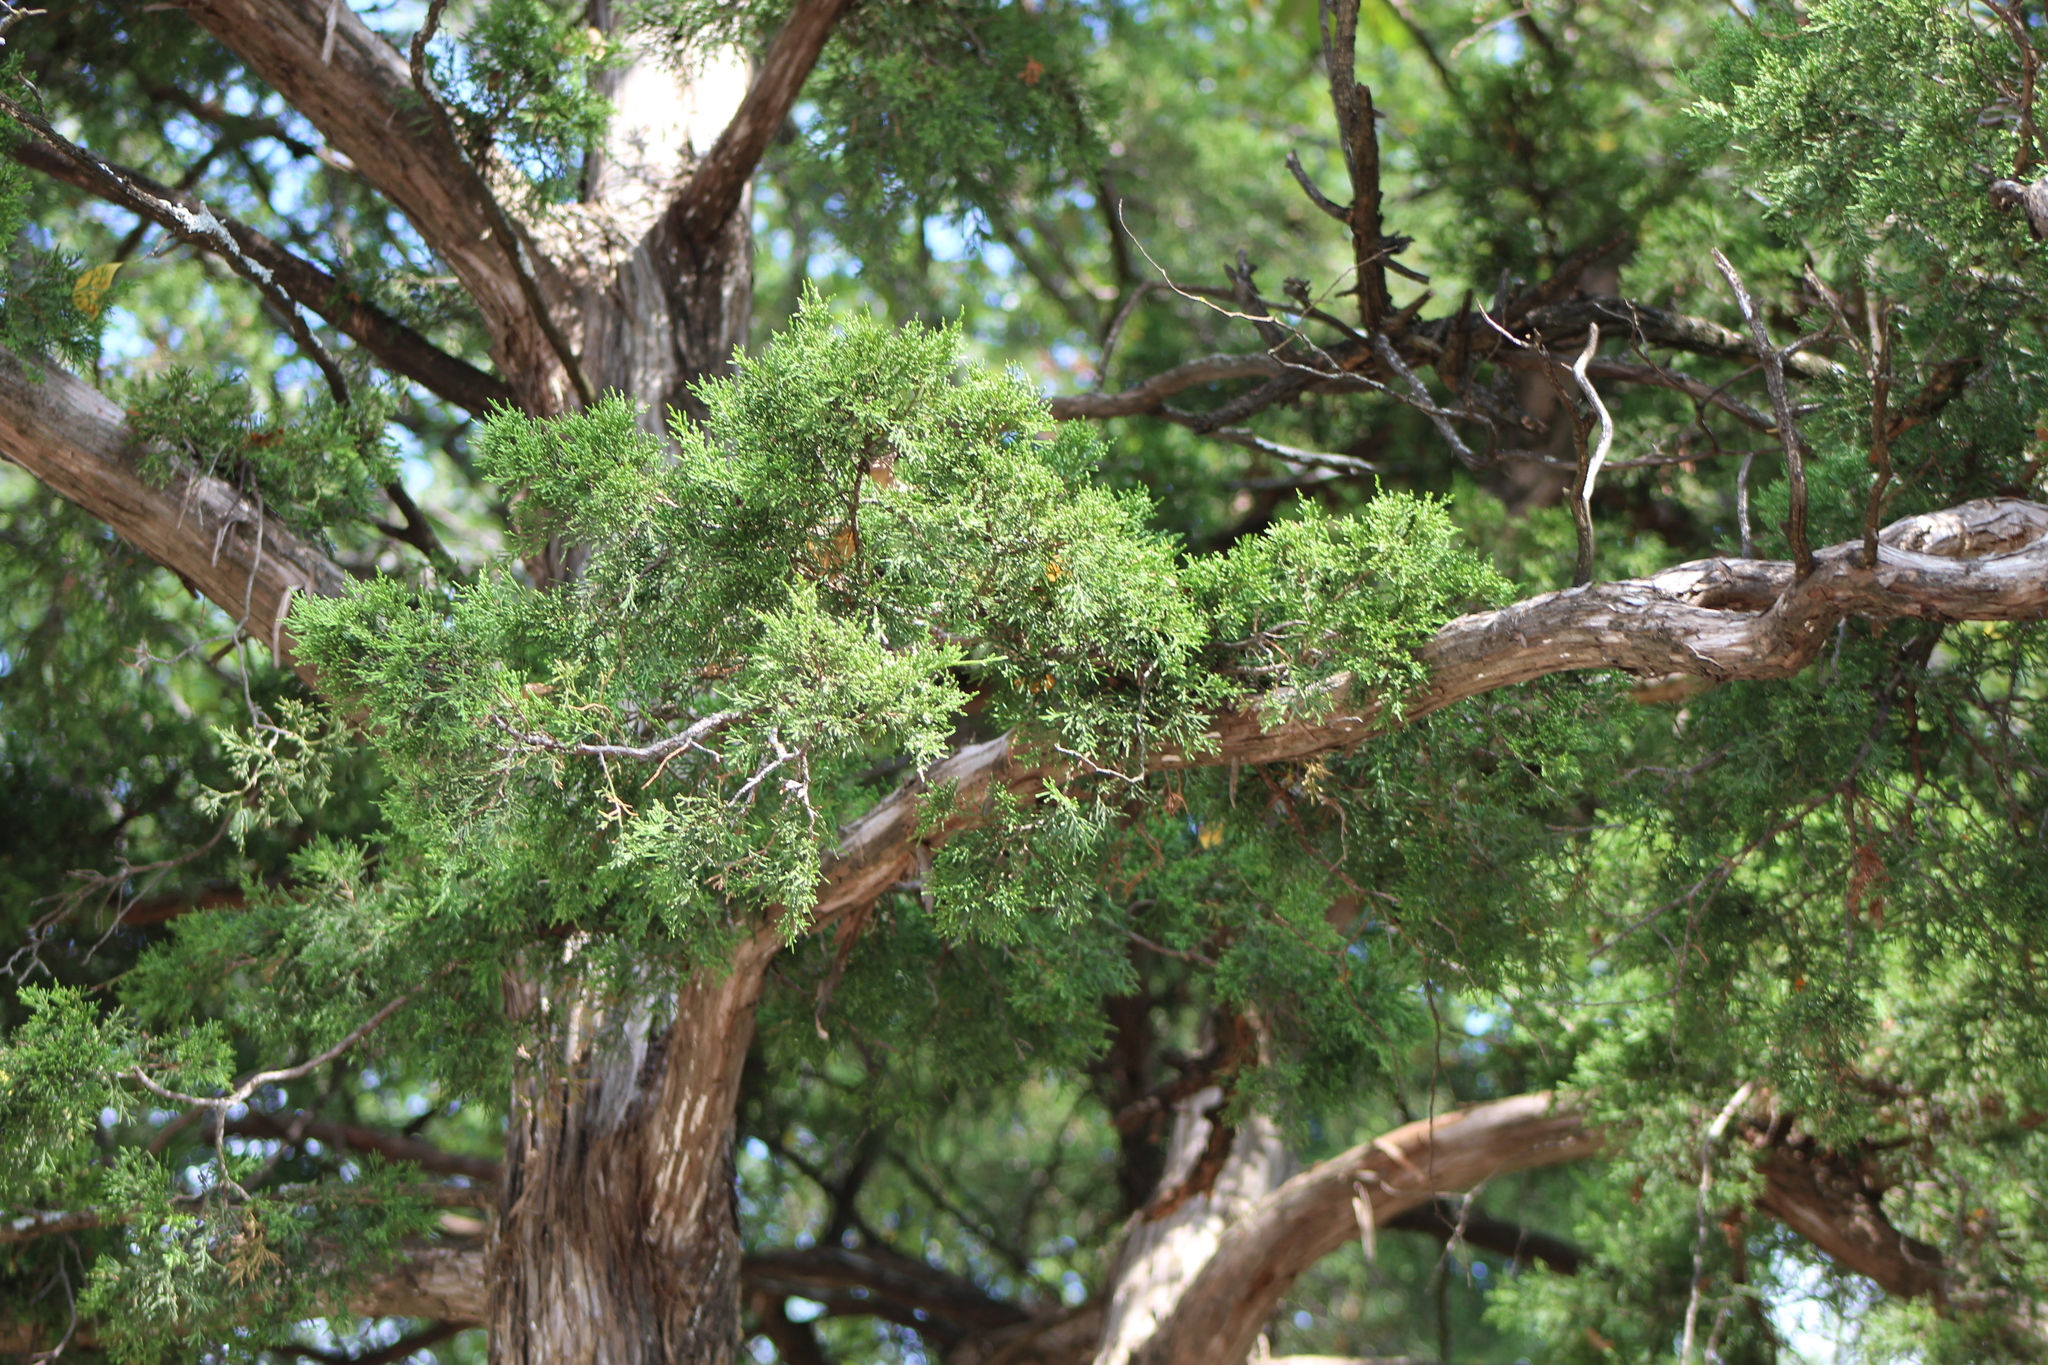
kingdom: Plantae
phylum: Tracheophyta
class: Pinopsida
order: Pinales
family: Cupressaceae
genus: Juniperus
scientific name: Juniperus virginiana
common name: Red juniper
